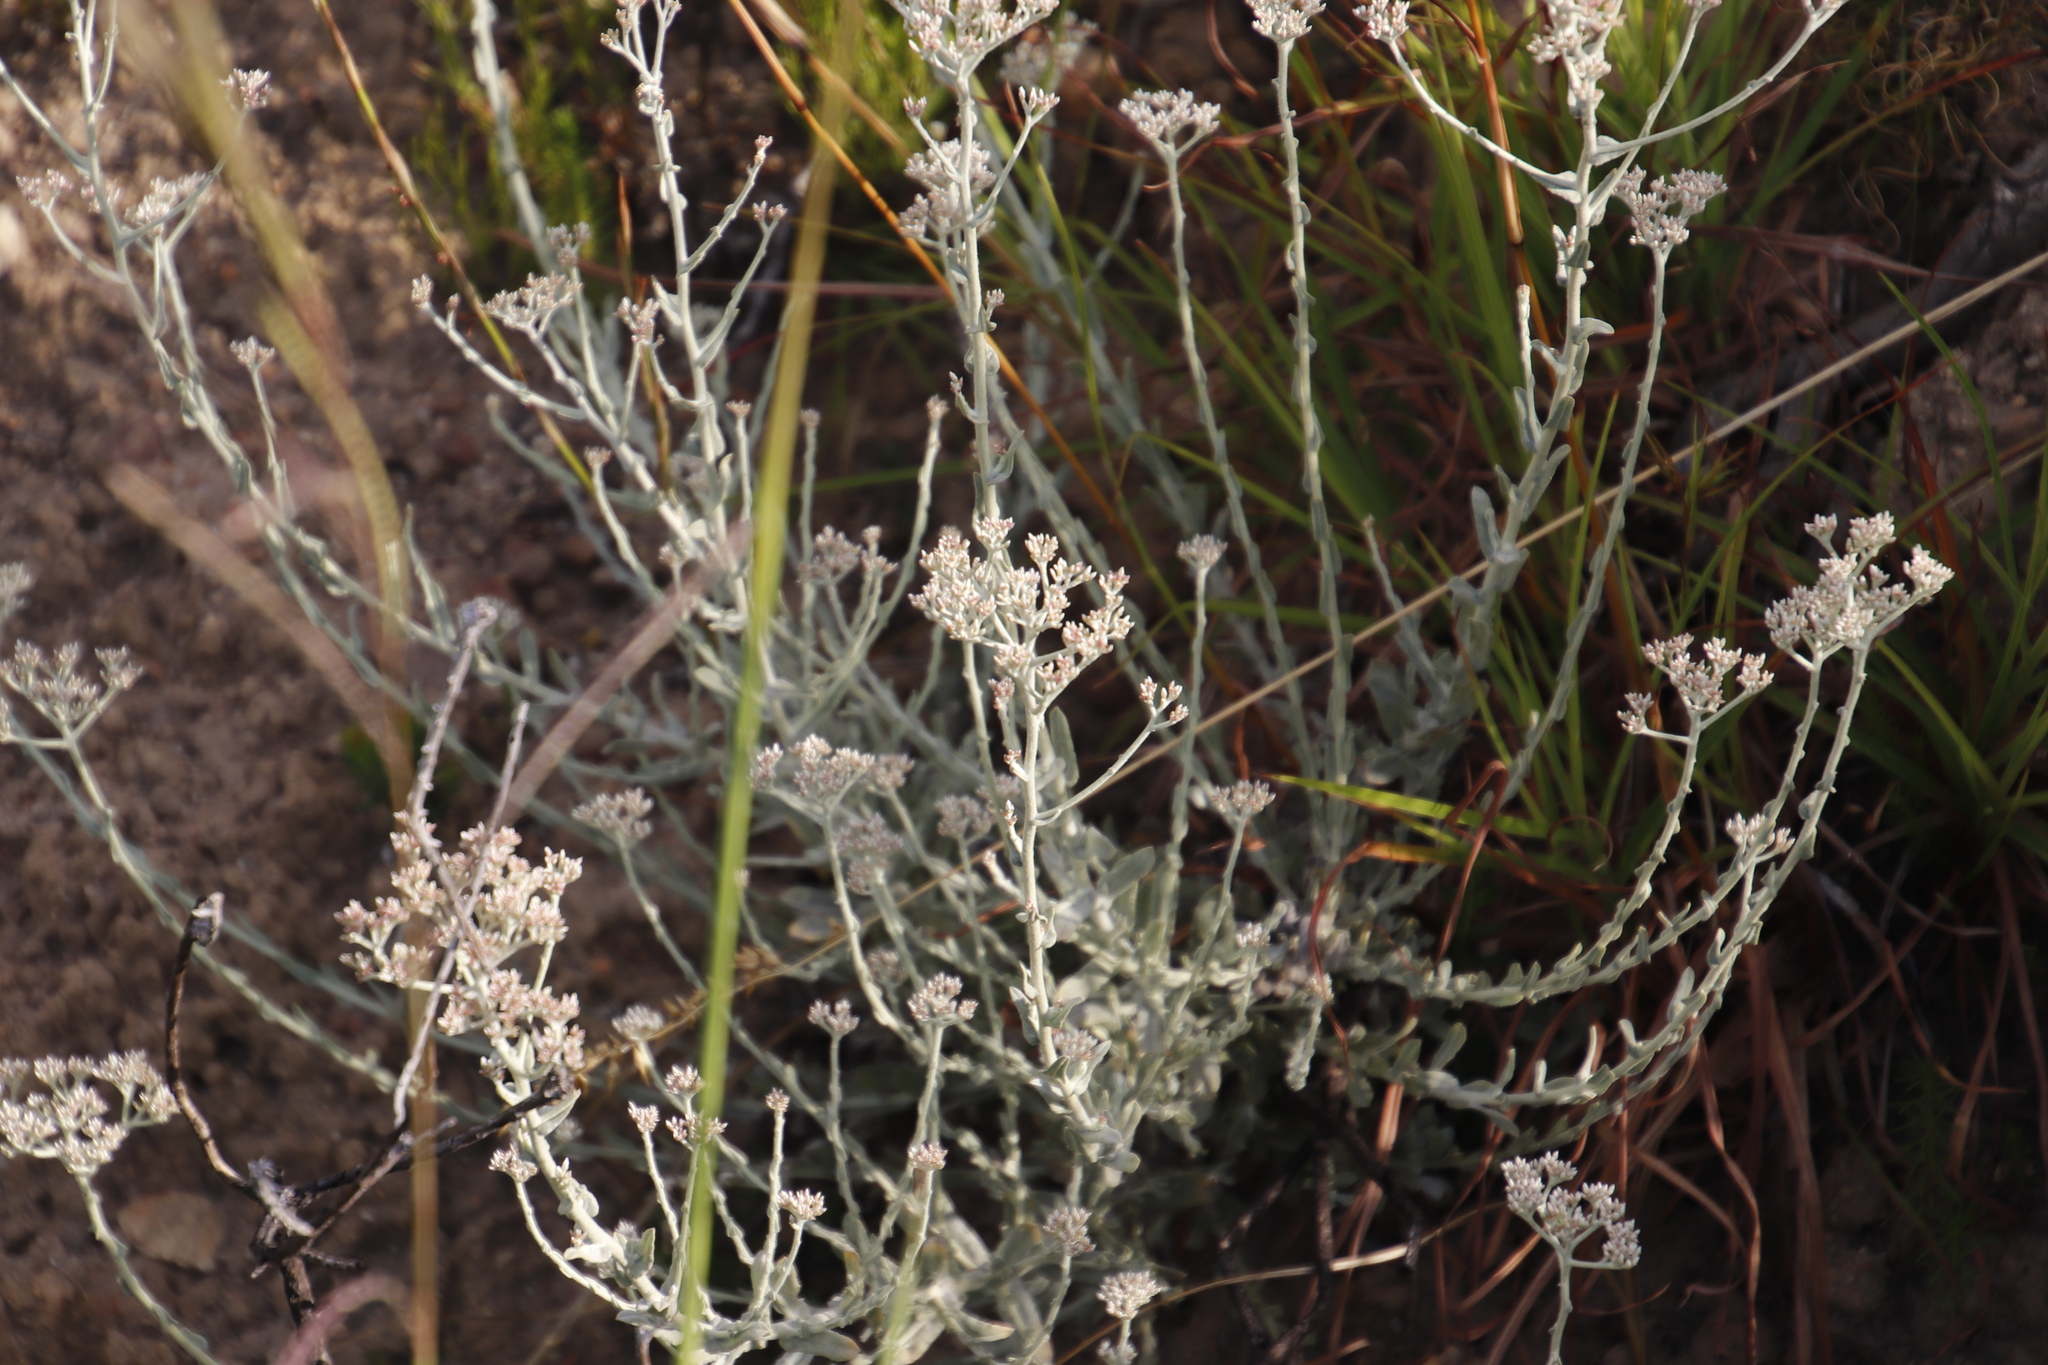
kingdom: Plantae
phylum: Tracheophyta
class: Magnoliopsida
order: Asterales
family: Asteraceae
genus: Helichrysum
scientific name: Helichrysum zeyheri
